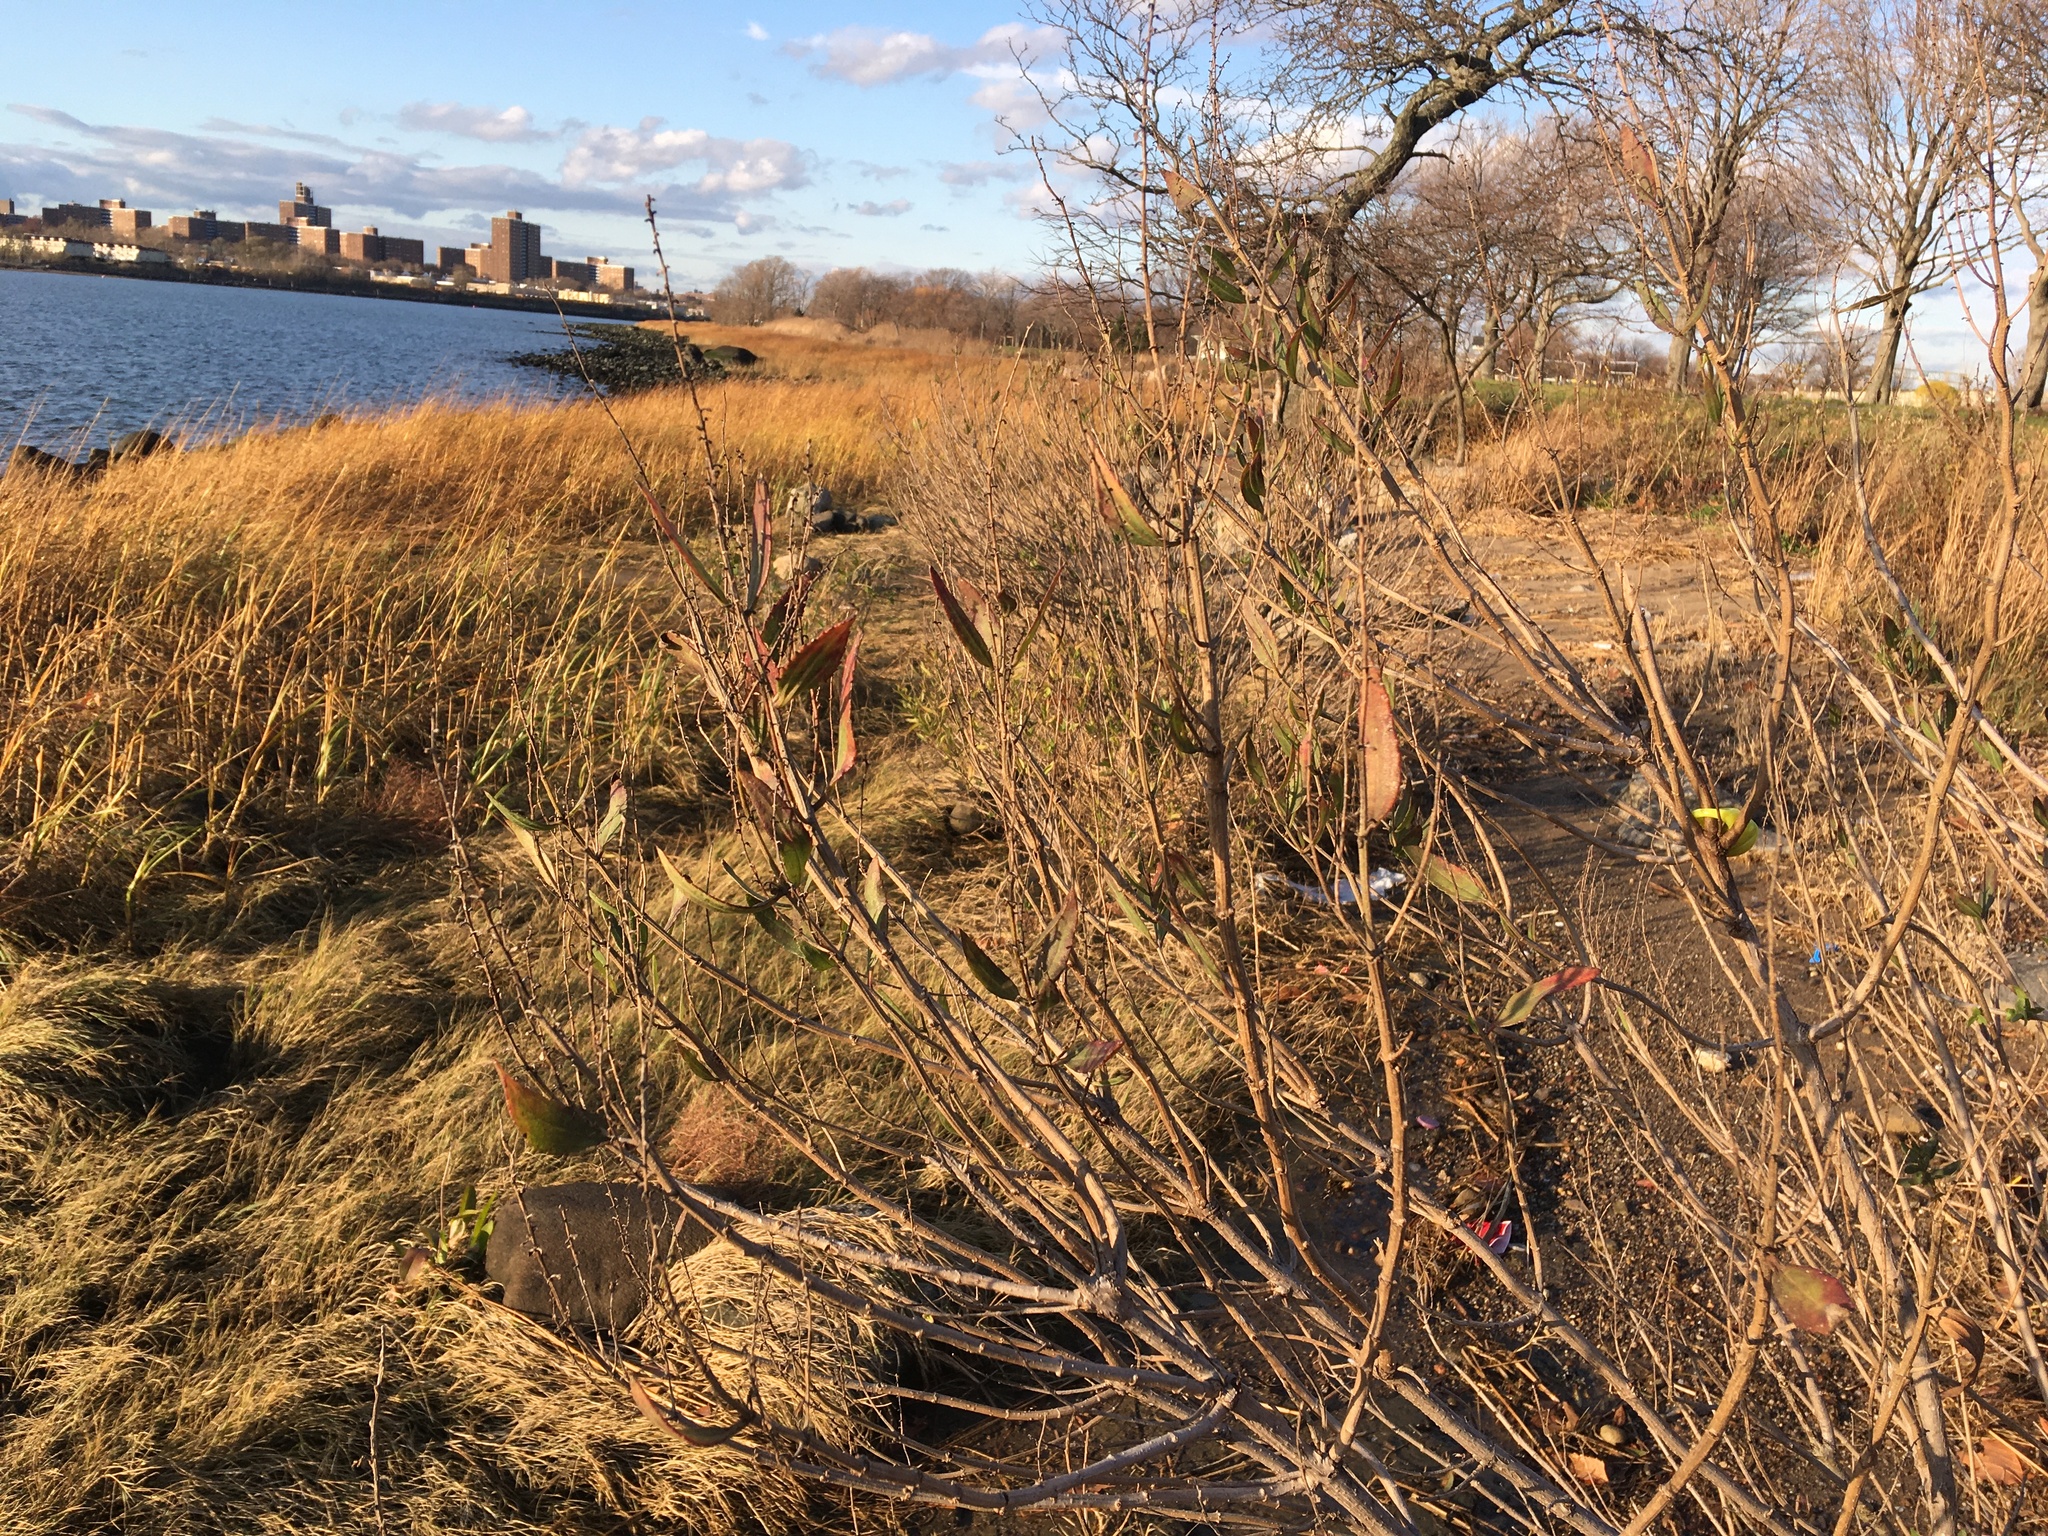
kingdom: Plantae
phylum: Tracheophyta
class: Magnoliopsida
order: Asterales
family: Asteraceae
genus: Iva
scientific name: Iva frutescens
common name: Big-leaved marsh-elder
